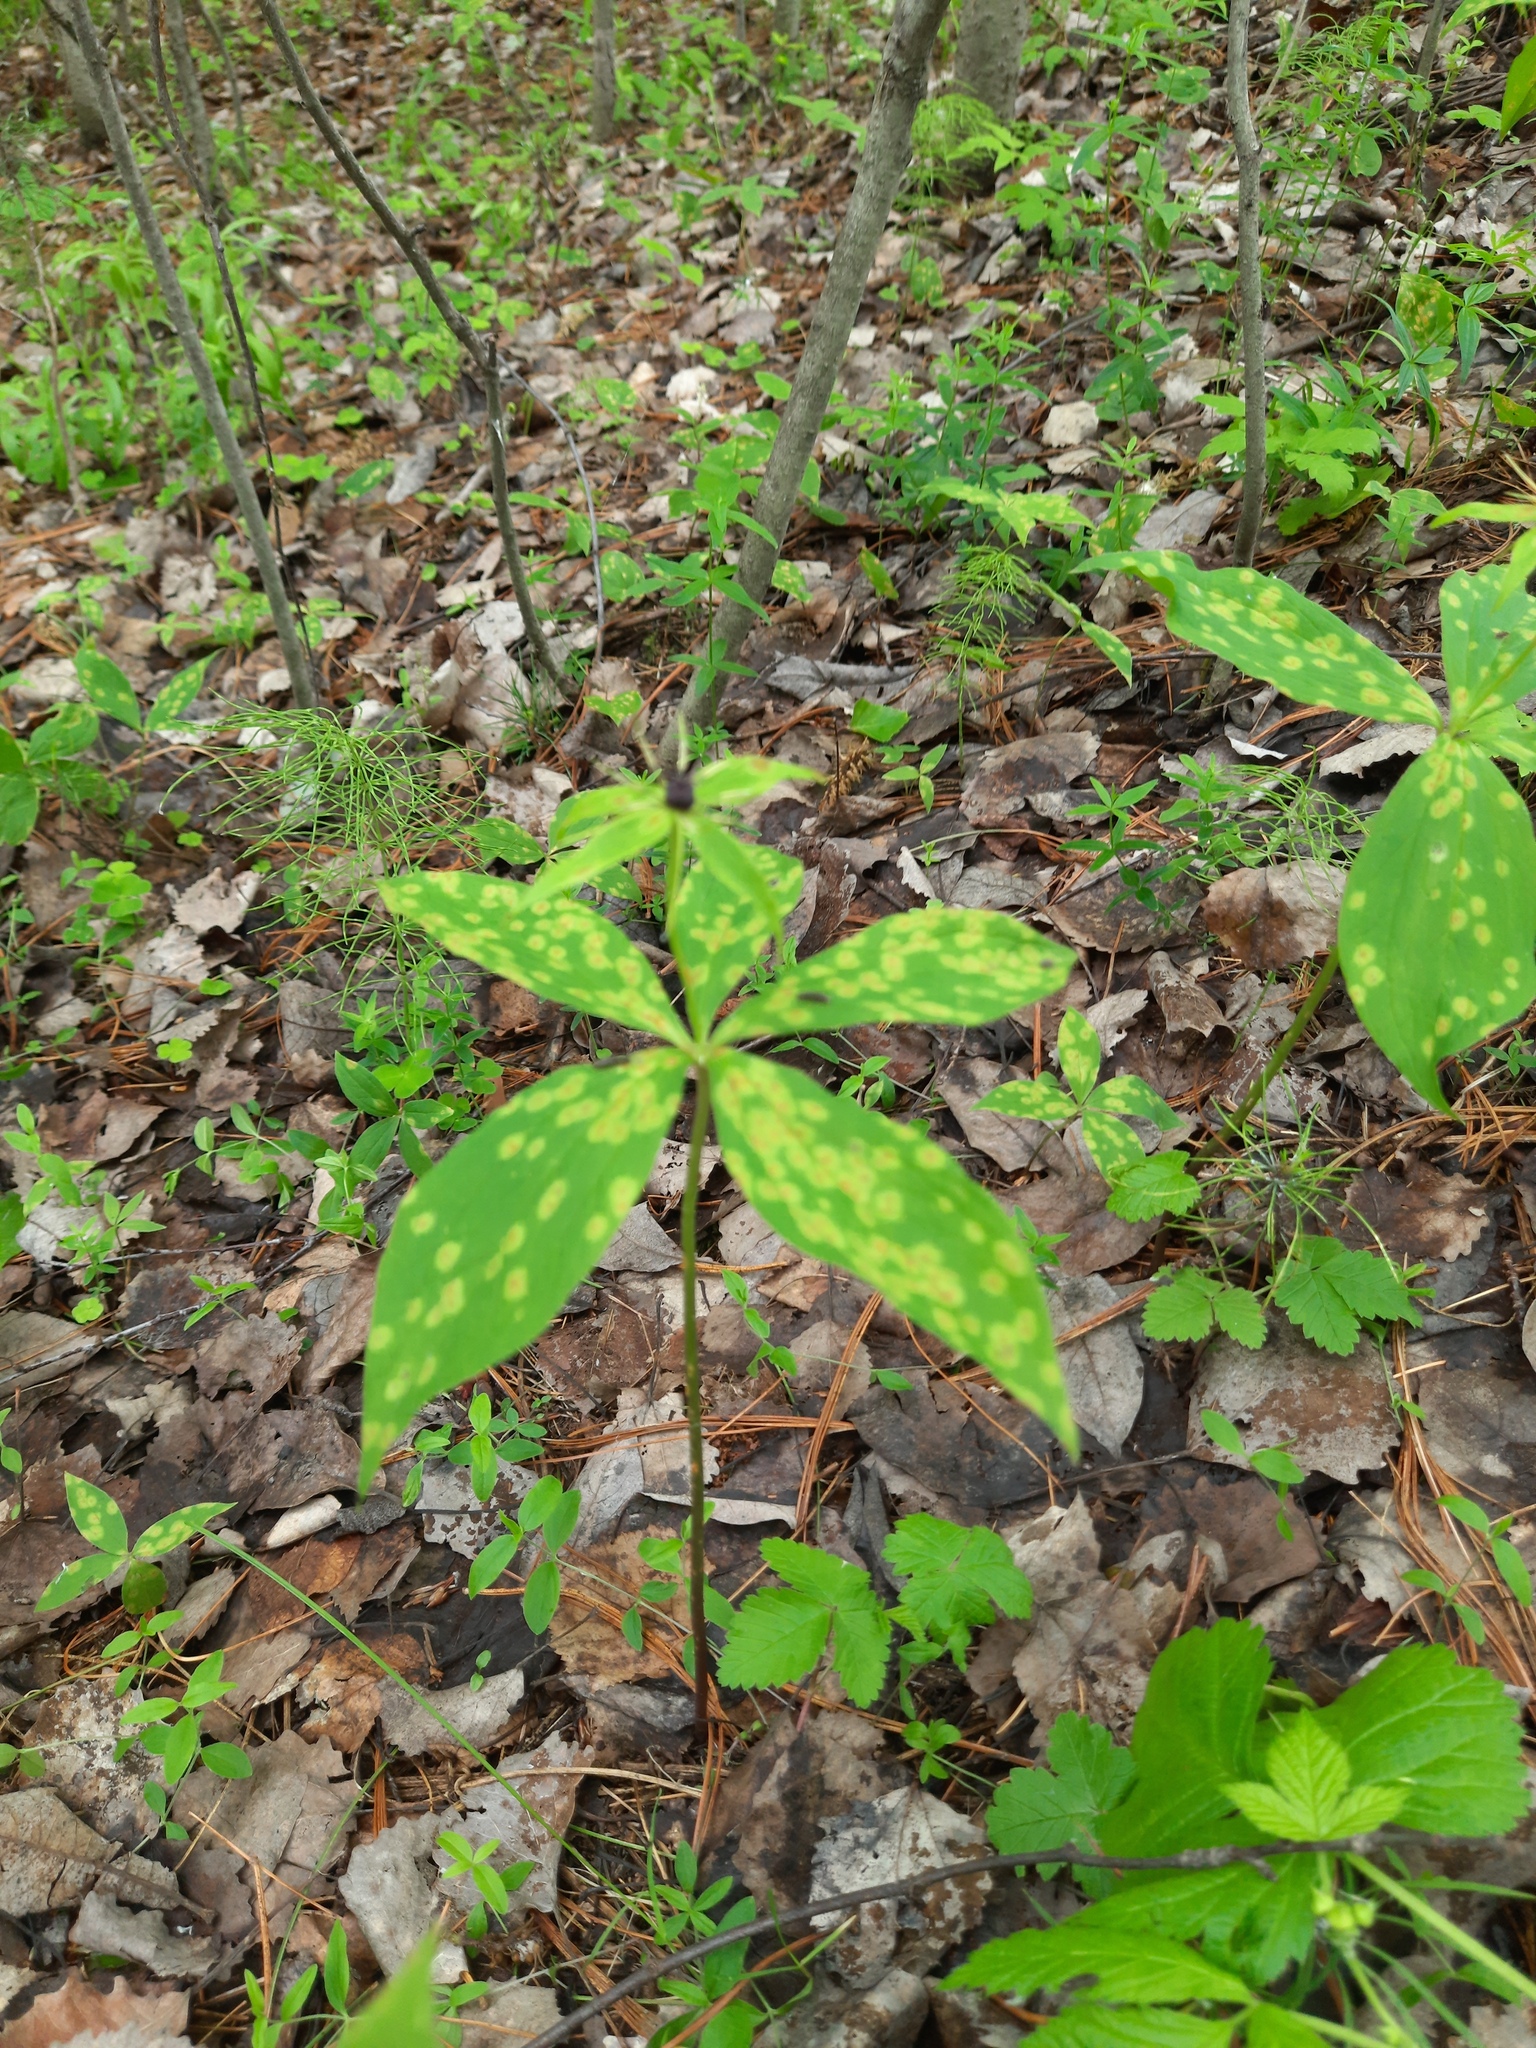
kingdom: Plantae
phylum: Tracheophyta
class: Liliopsida
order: Liliales
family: Melanthiaceae
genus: Paris
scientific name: Paris quadrifolia
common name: Herb-paris
